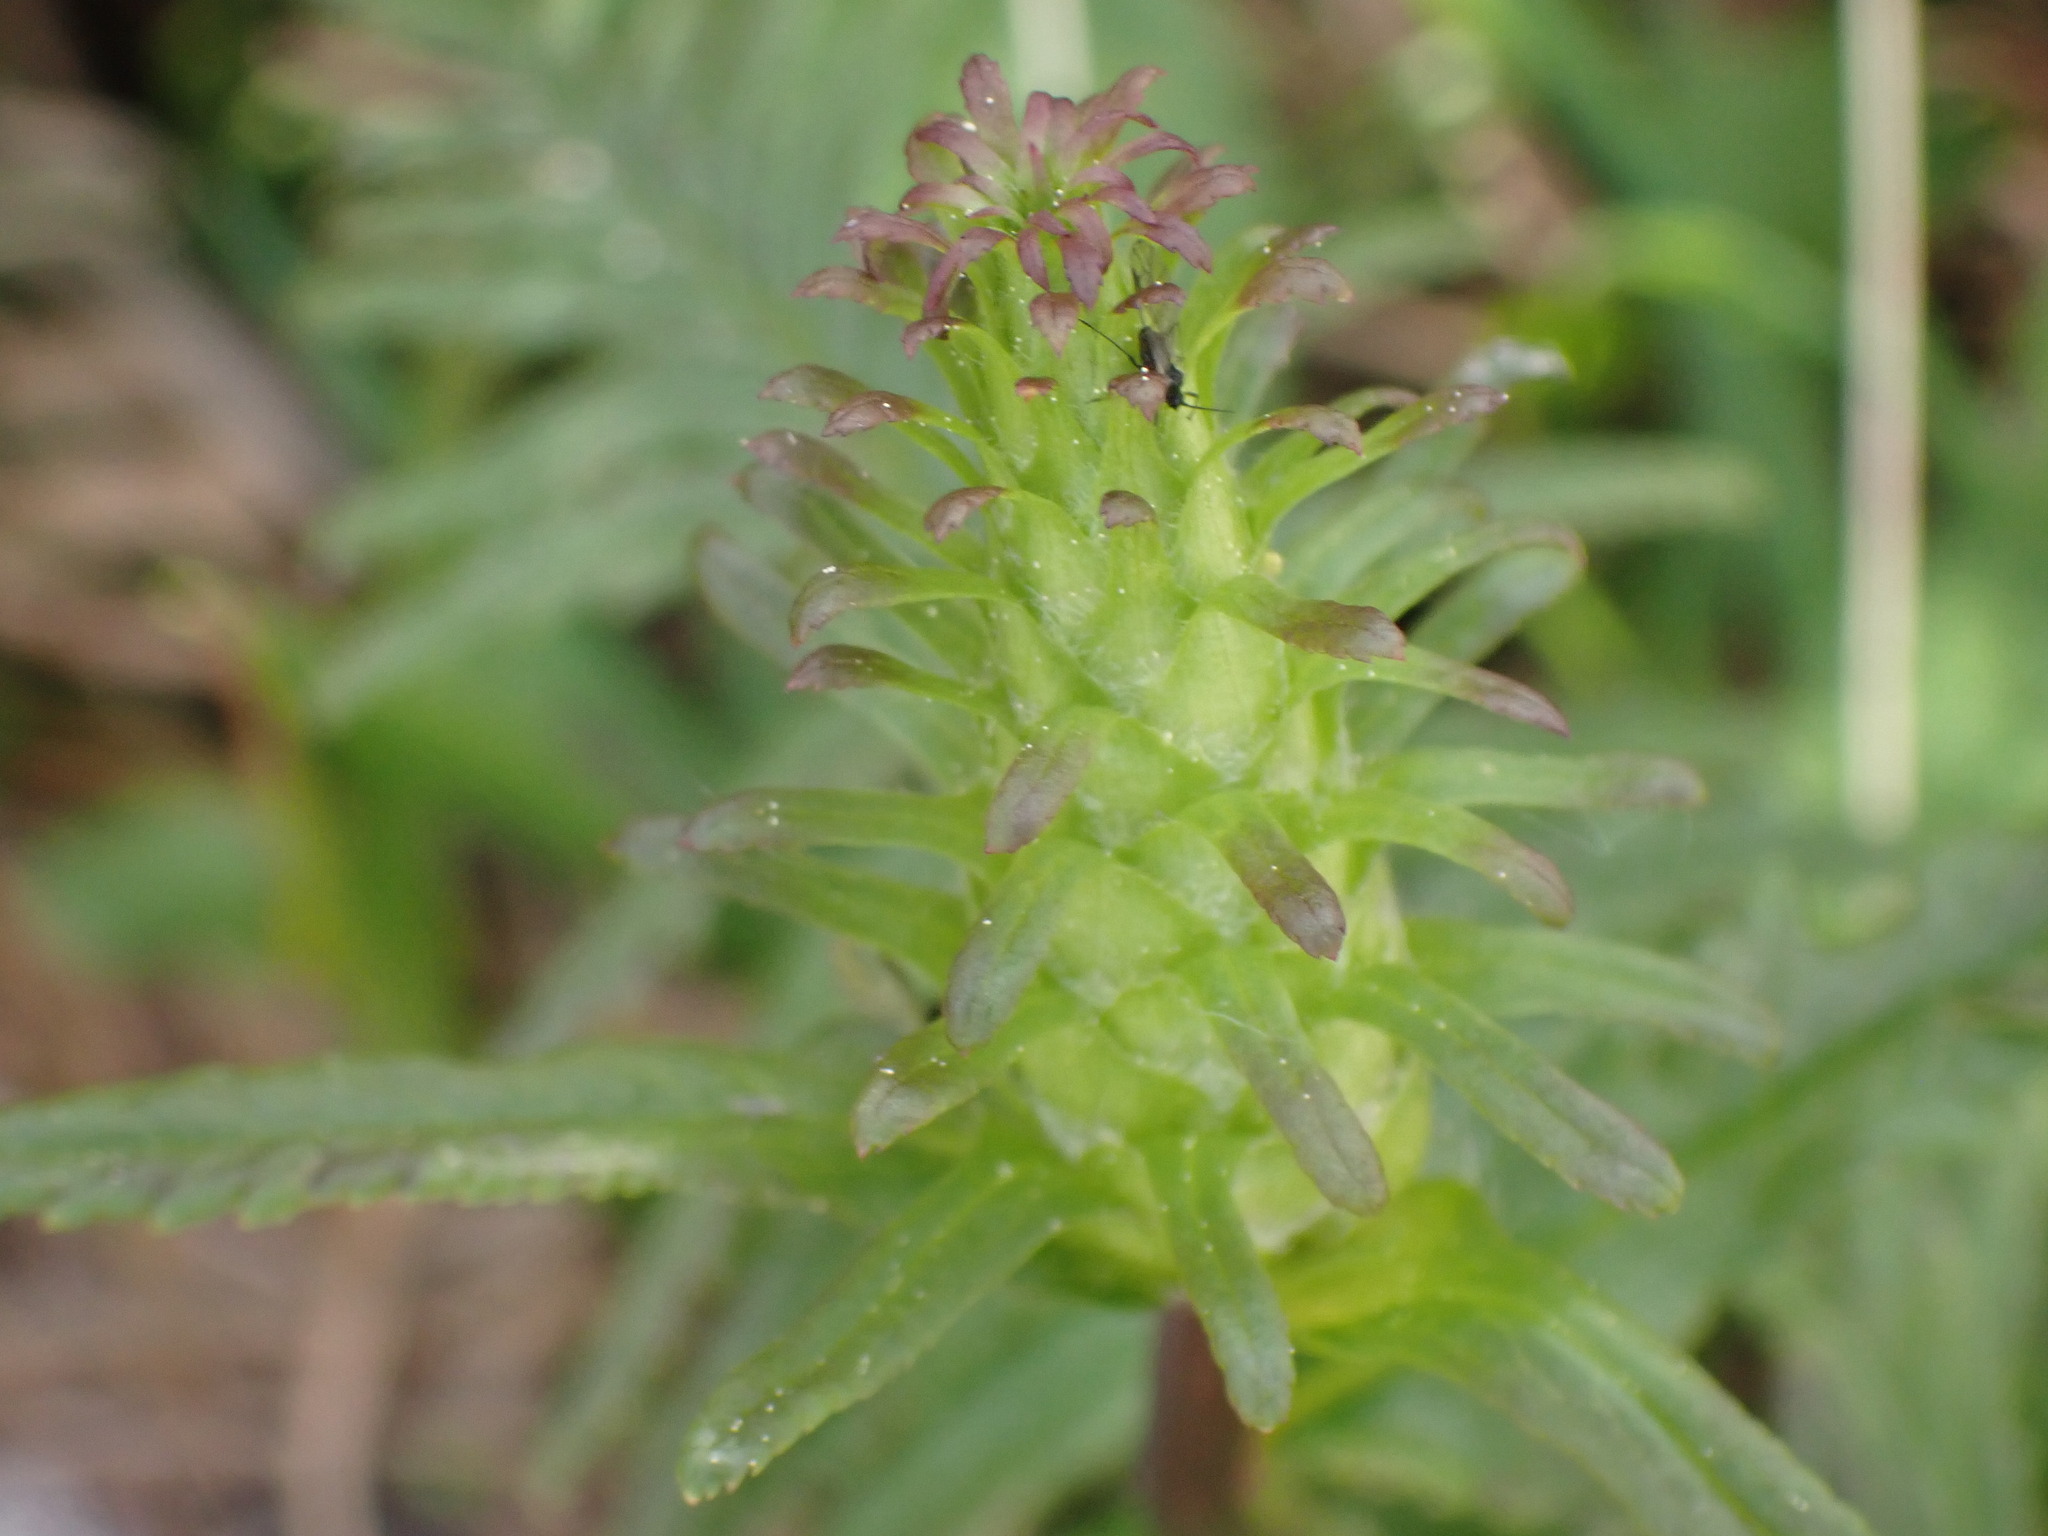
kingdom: Plantae
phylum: Tracheophyta
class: Magnoliopsida
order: Lamiales
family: Orobanchaceae
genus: Pedicularis
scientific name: Pedicularis bracteosa
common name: Bracted lousewort
